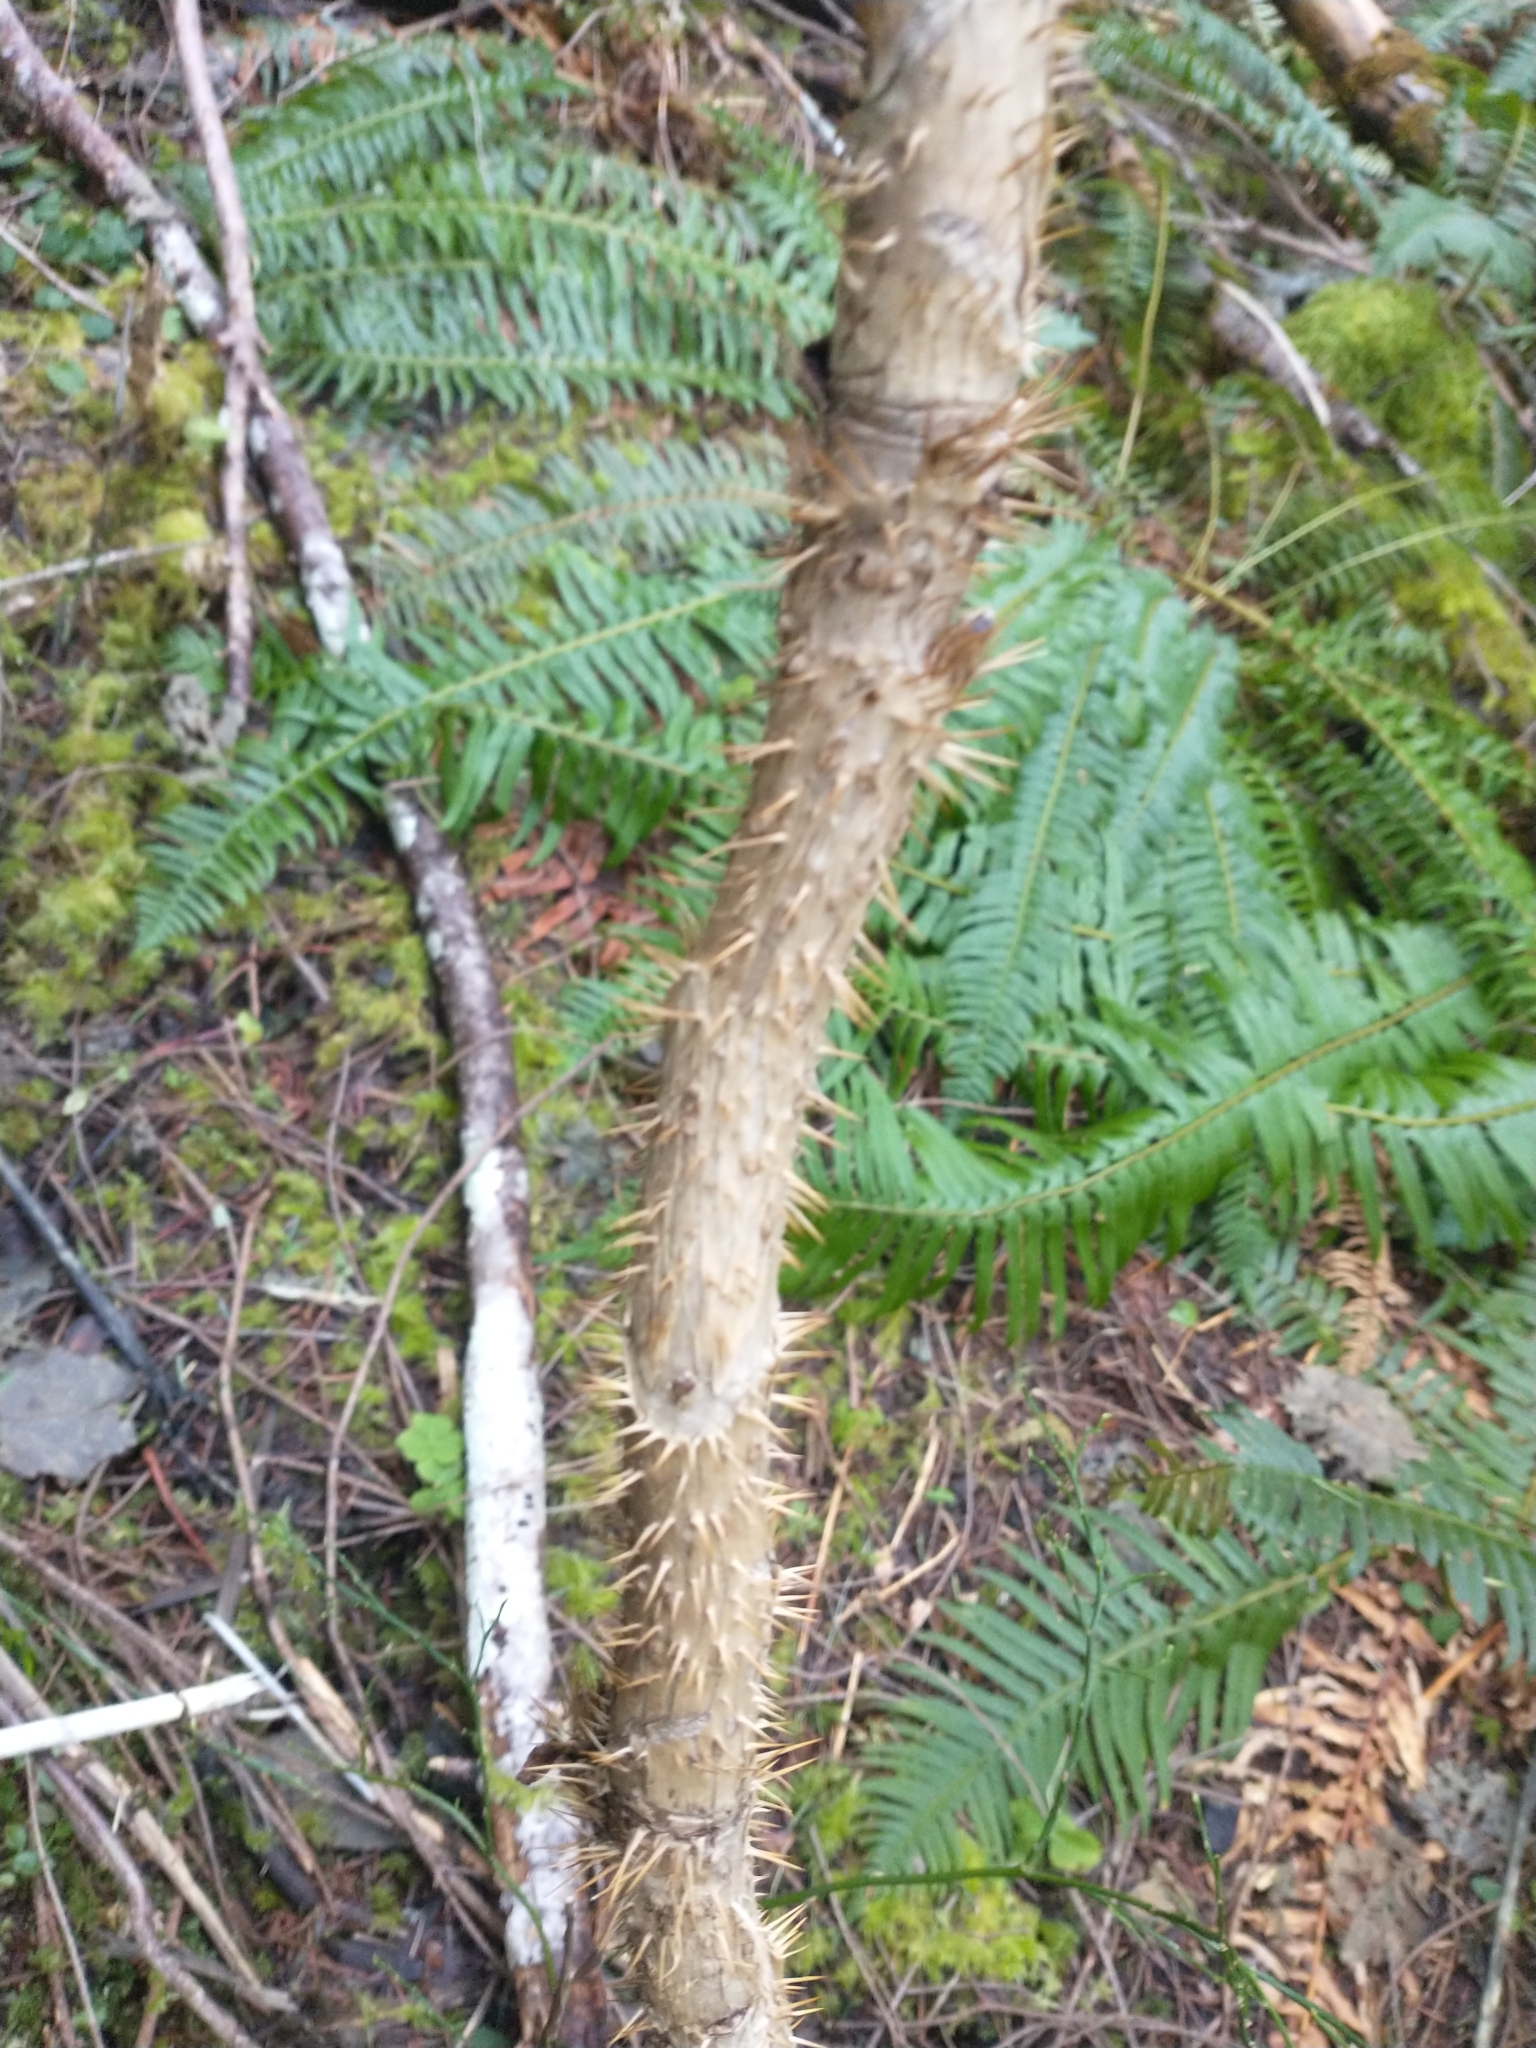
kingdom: Plantae
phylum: Tracheophyta
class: Magnoliopsida
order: Apiales
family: Araliaceae
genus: Oplopanax
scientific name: Oplopanax horridus
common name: Devil's walking-stick
